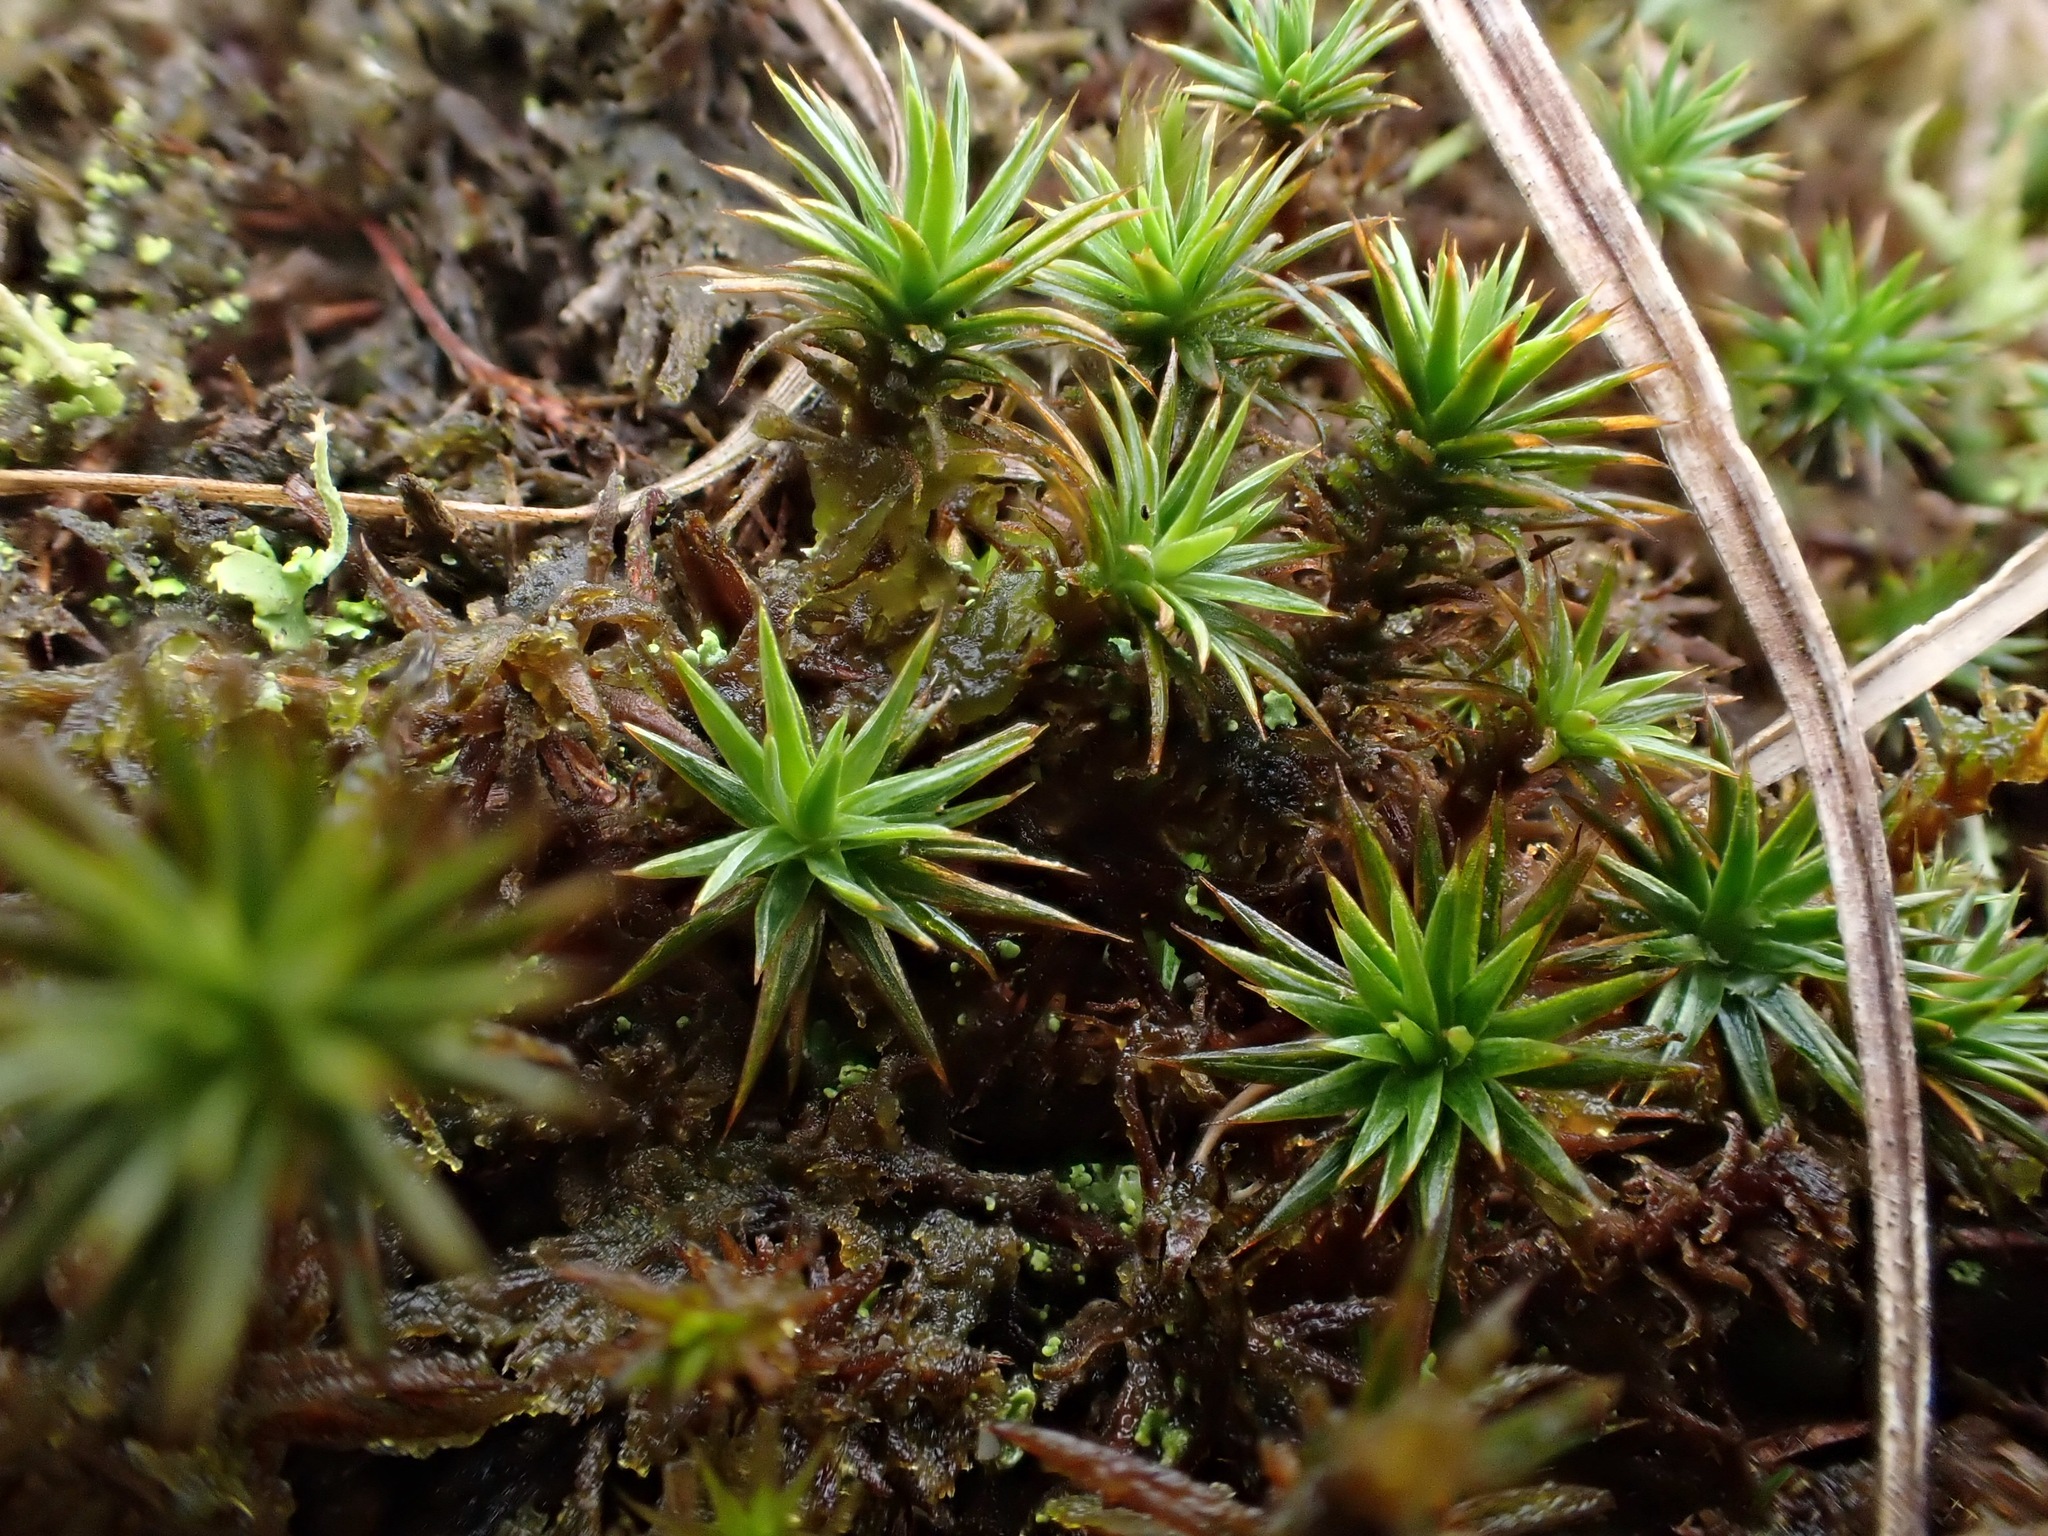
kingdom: Plantae
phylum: Bryophyta
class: Polytrichopsida
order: Polytrichales
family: Polytrichaceae
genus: Polytrichum
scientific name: Polytrichum juniperinum
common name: Juniper haircap moss
